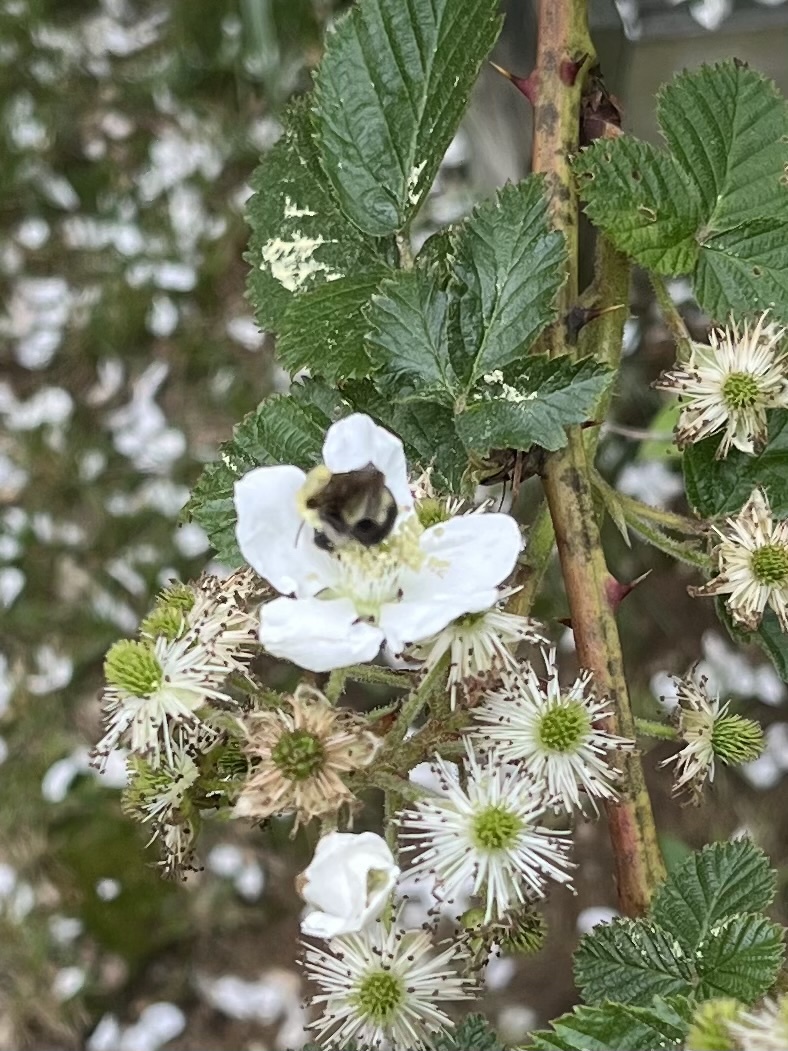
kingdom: Animalia
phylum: Arthropoda
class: Insecta
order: Hymenoptera
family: Apidae
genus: Bombus
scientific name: Bombus bimaculatus
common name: Two-spotted bumble bee
